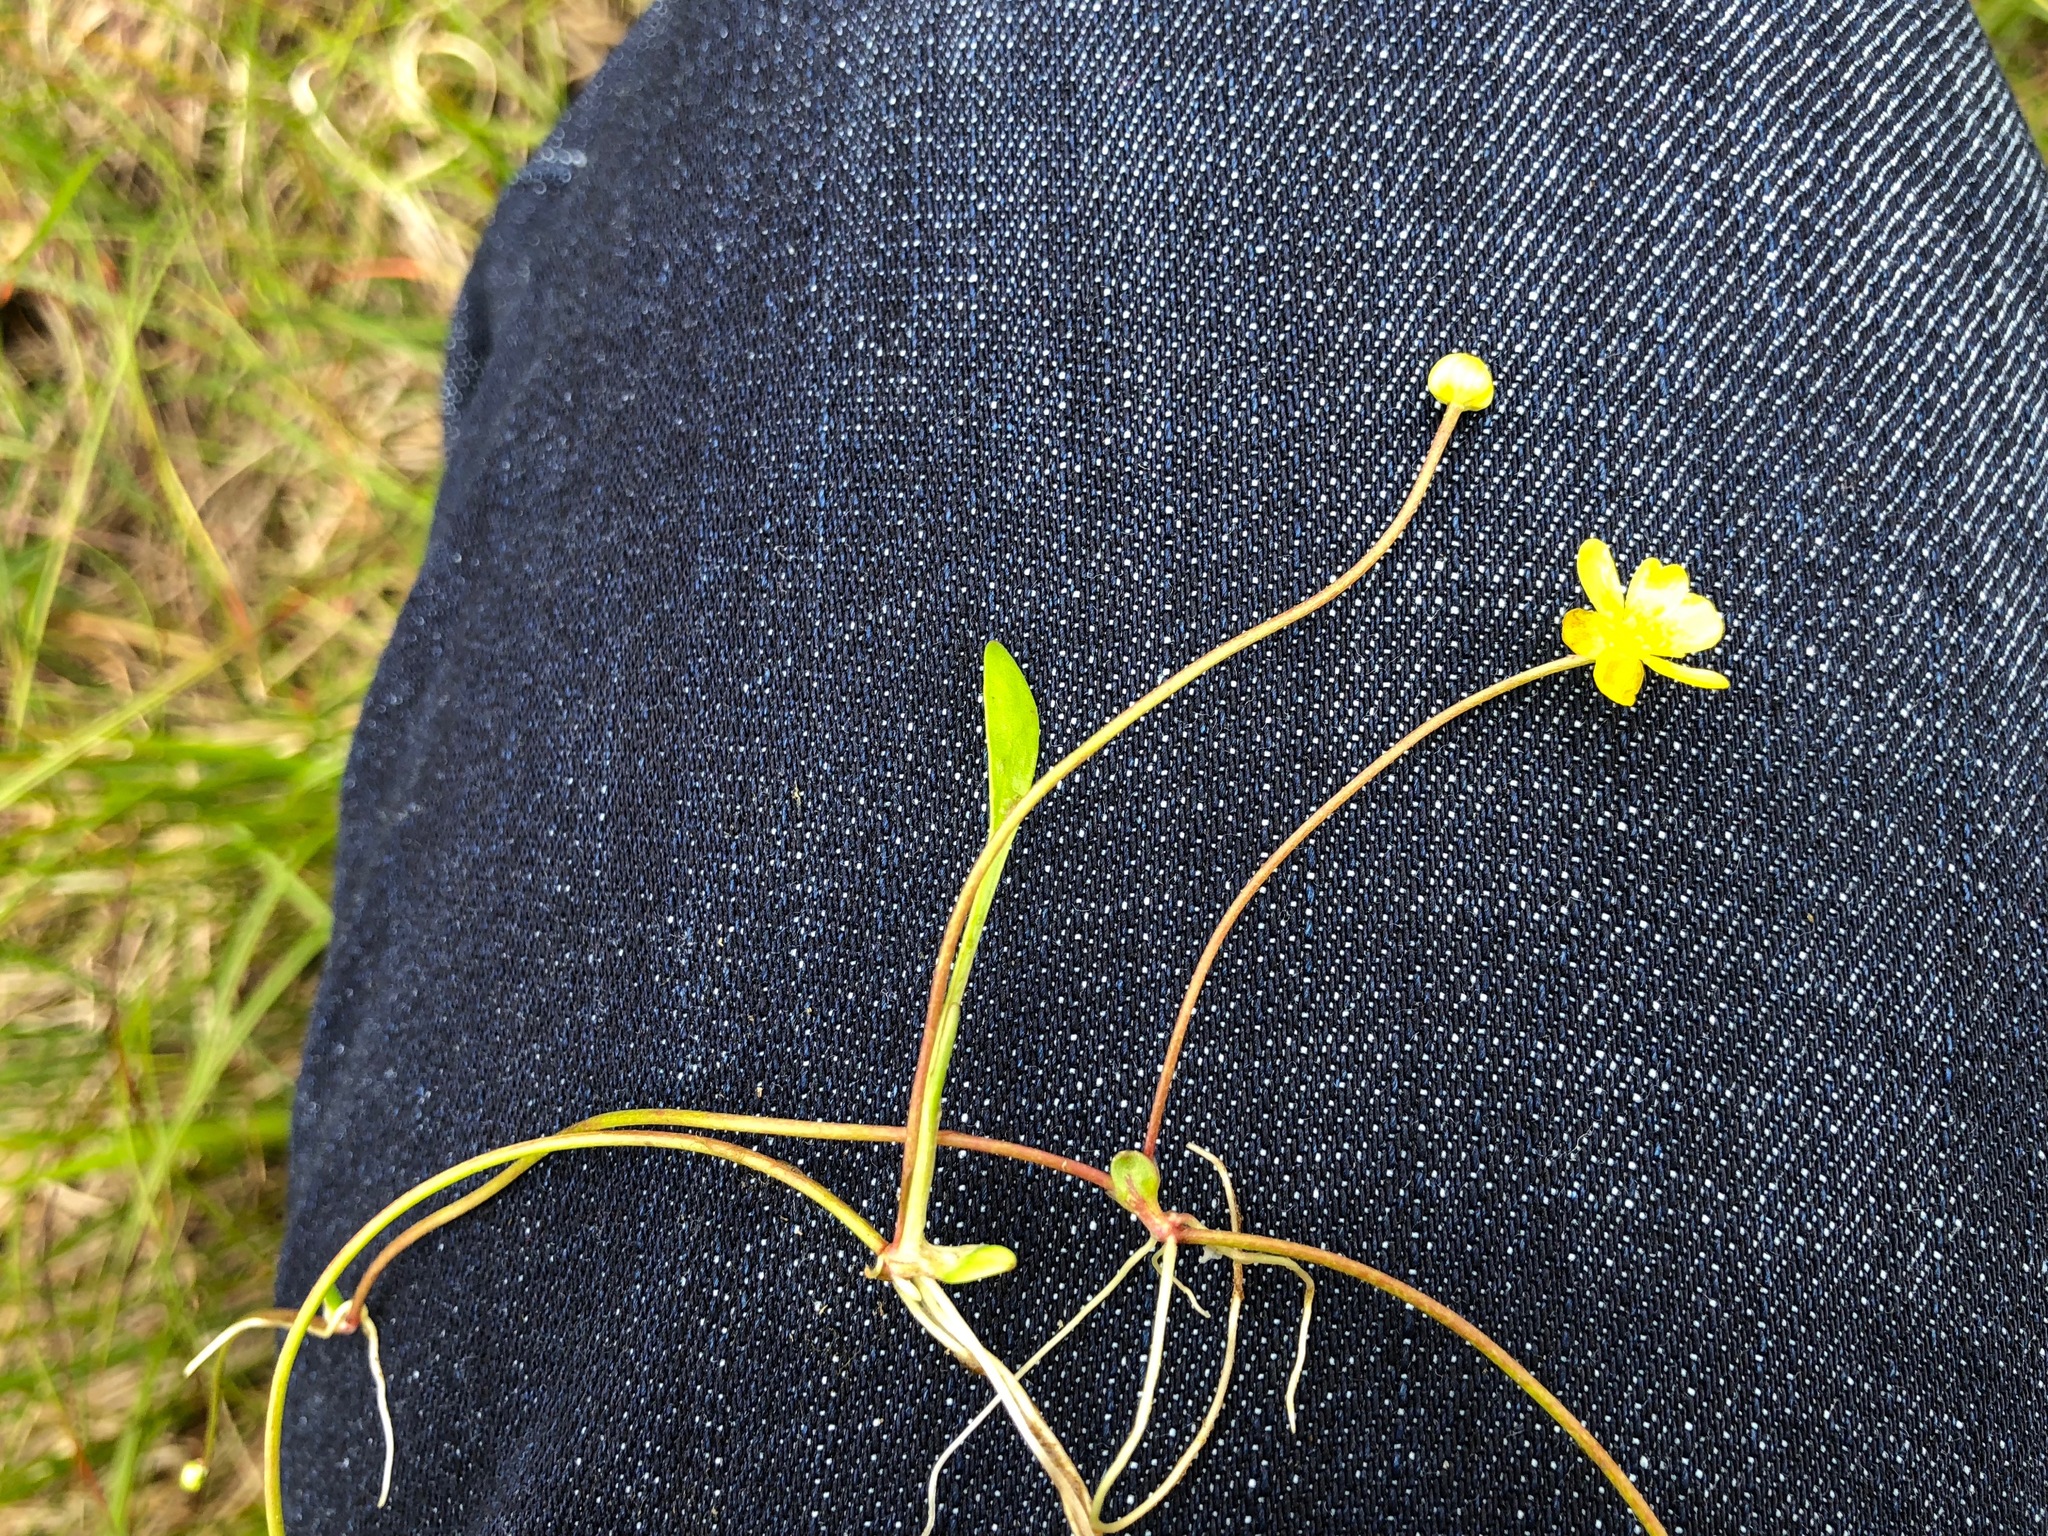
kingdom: Plantae
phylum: Tracheophyta
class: Magnoliopsida
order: Ranunculales
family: Ranunculaceae
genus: Ranunculus
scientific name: Ranunculus reptans
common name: Creeping spearwort
